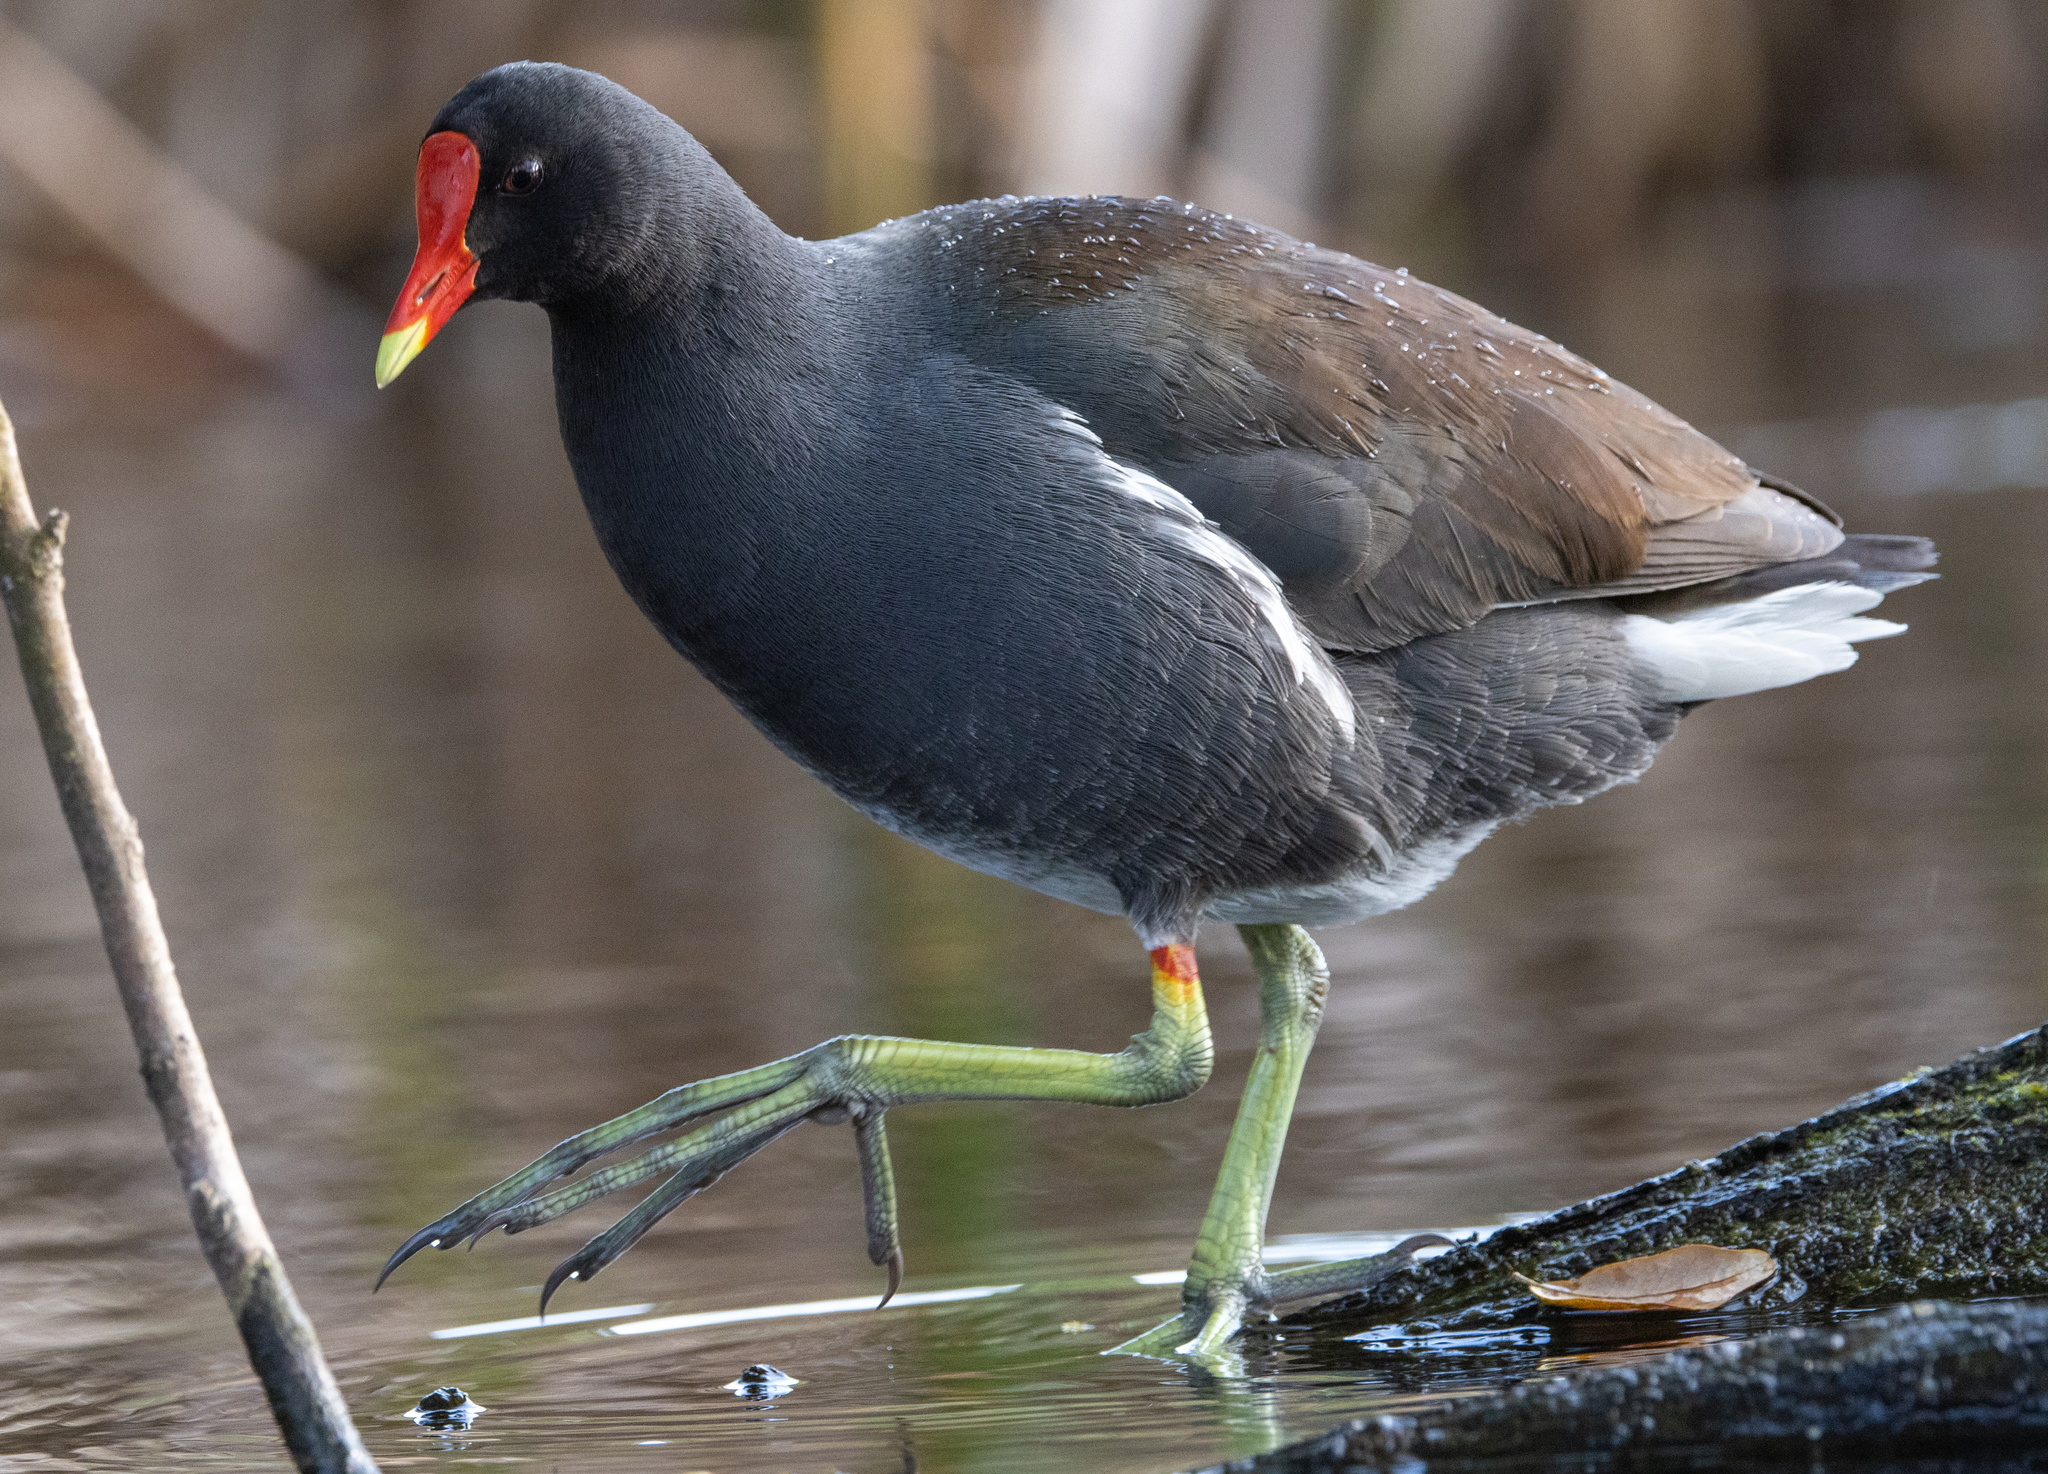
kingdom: Animalia
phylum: Chordata
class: Aves
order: Gruiformes
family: Rallidae
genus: Gallinula
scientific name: Gallinula chloropus
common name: Common moorhen
